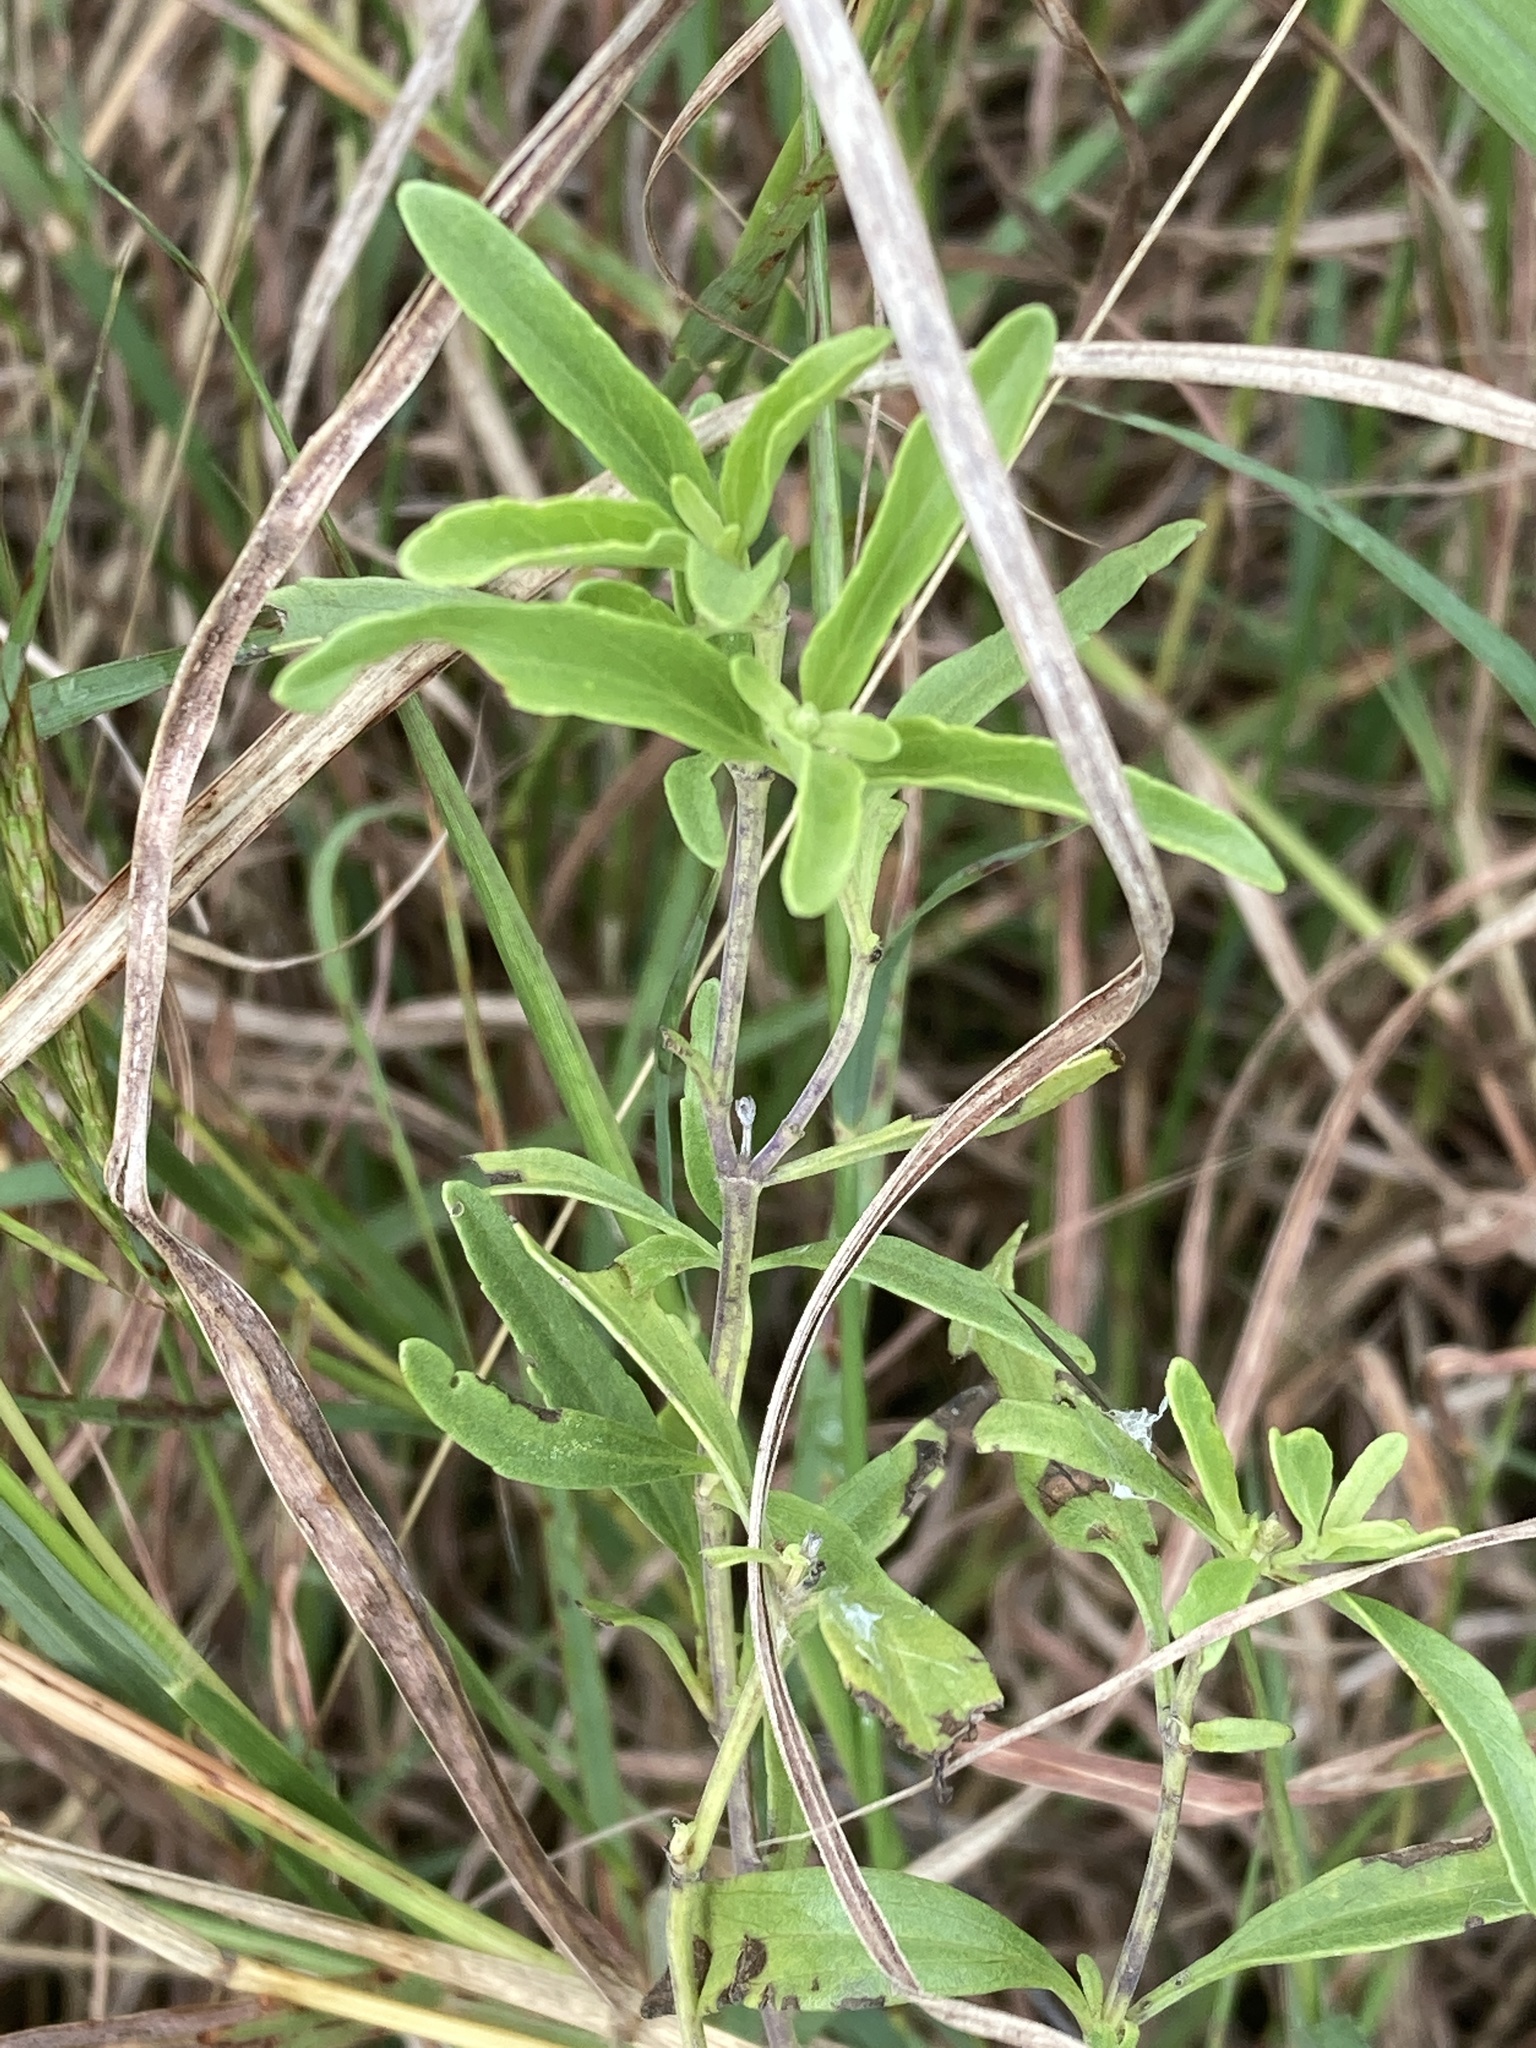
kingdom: Plantae
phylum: Tracheophyta
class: Magnoliopsida
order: Lamiales
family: Lamiaceae
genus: Salvia
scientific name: Salvia farinacea
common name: Mealy sage
